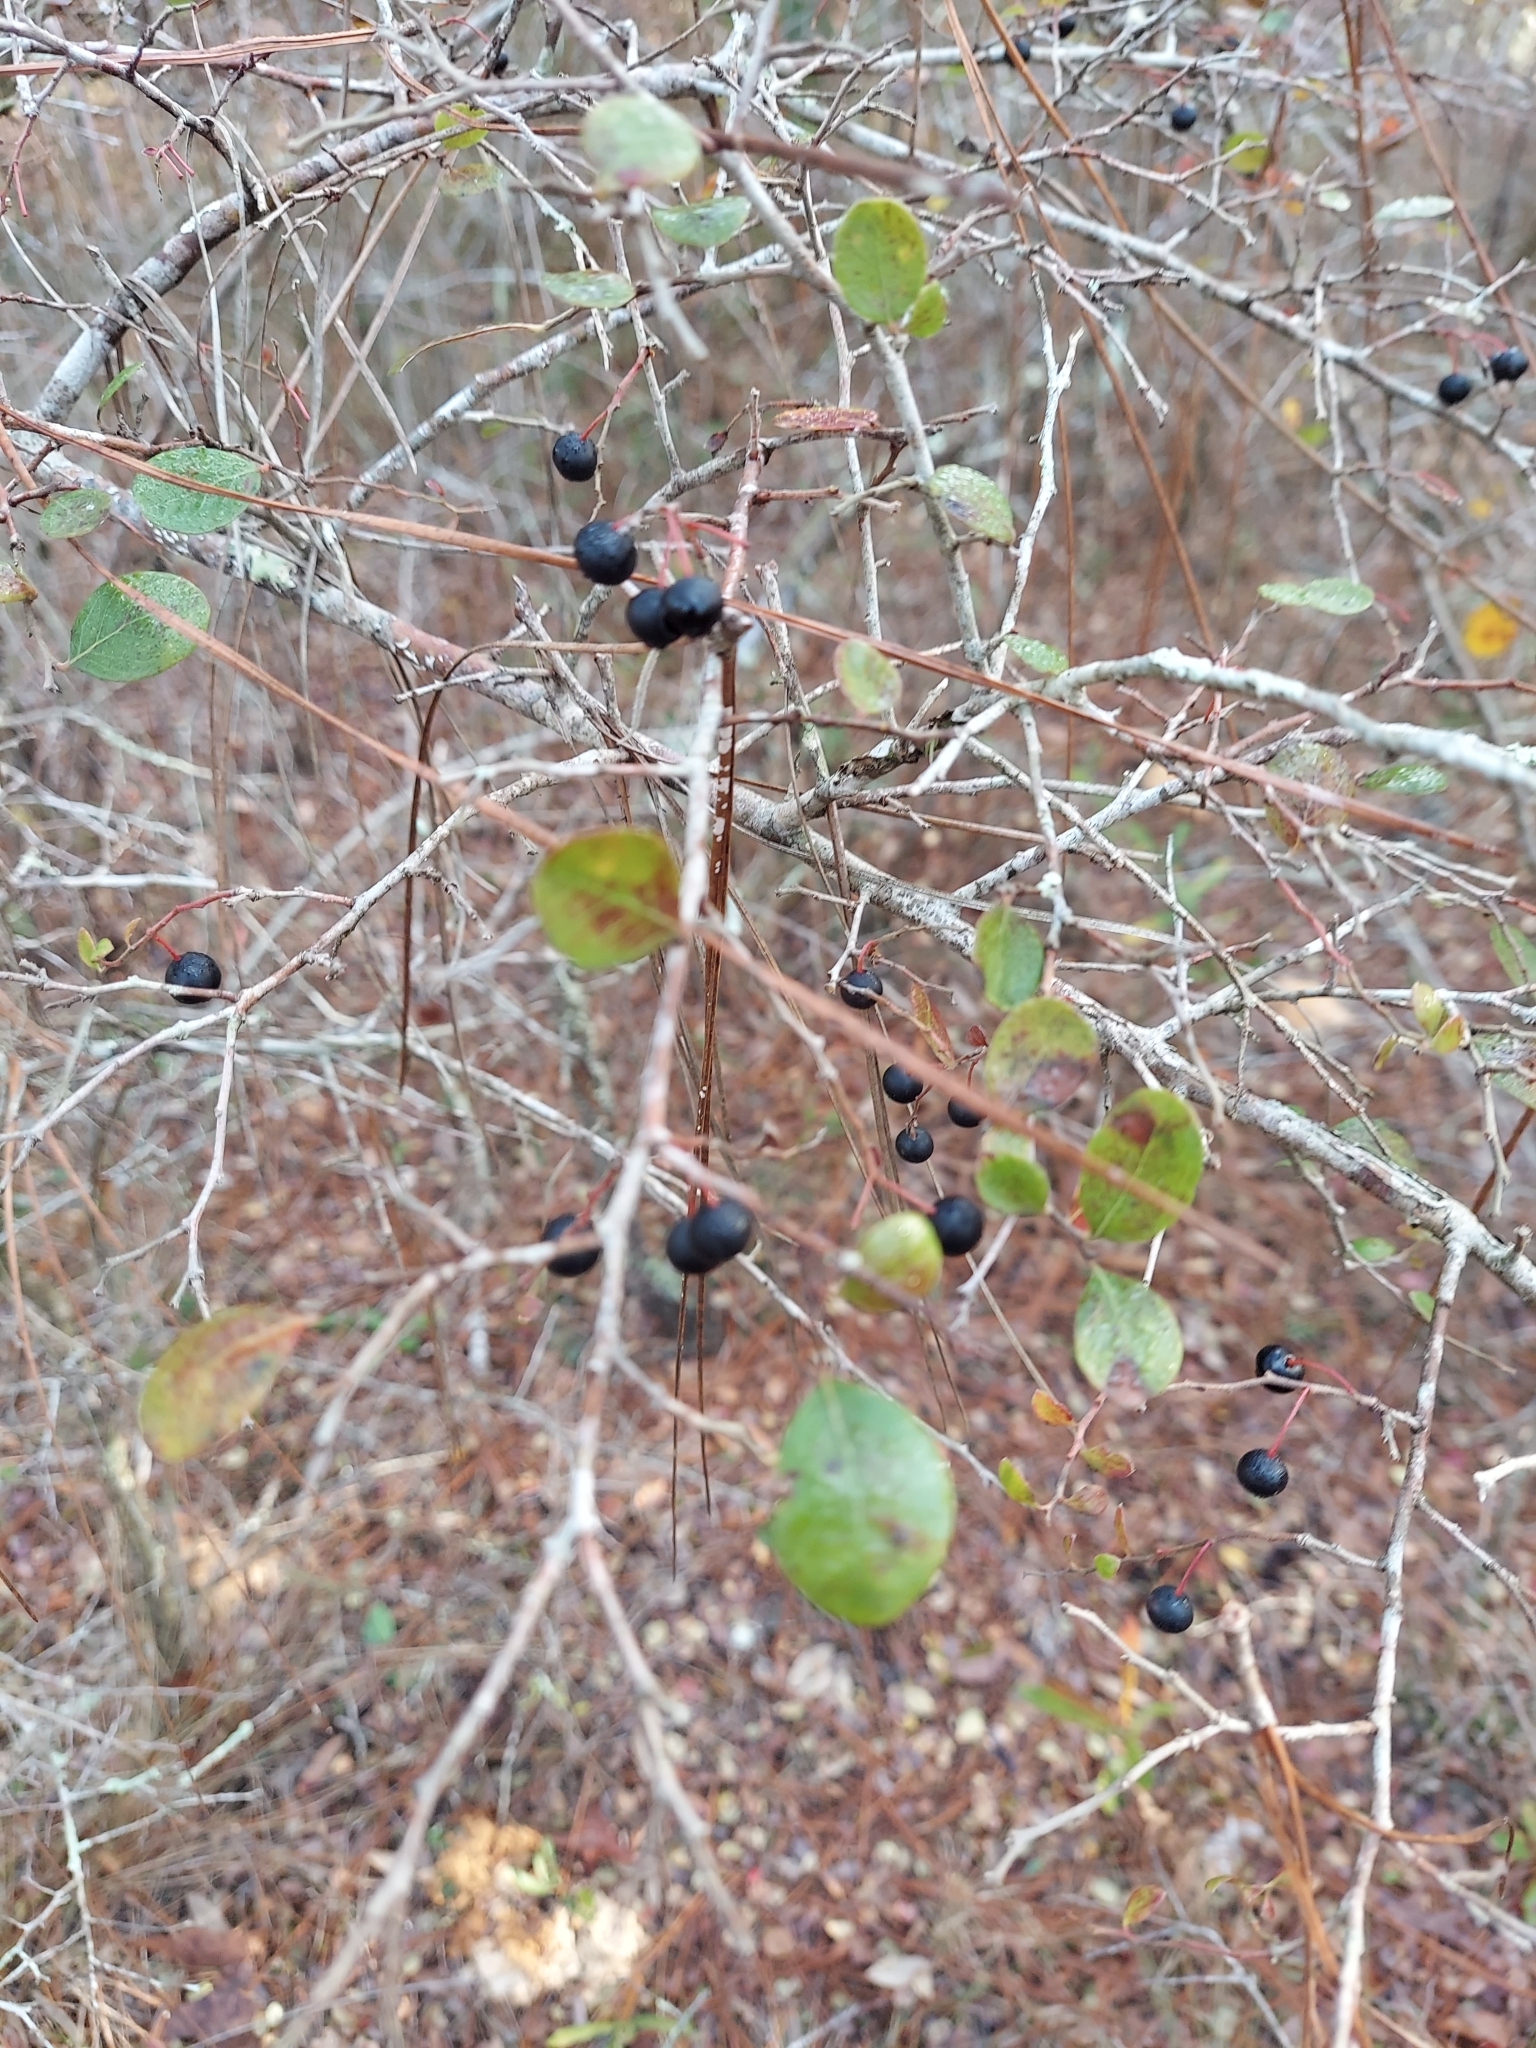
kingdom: Plantae
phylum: Tracheophyta
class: Magnoliopsida
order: Ericales
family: Ericaceae
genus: Vaccinium
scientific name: Vaccinium arboreum
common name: Farkleberry
